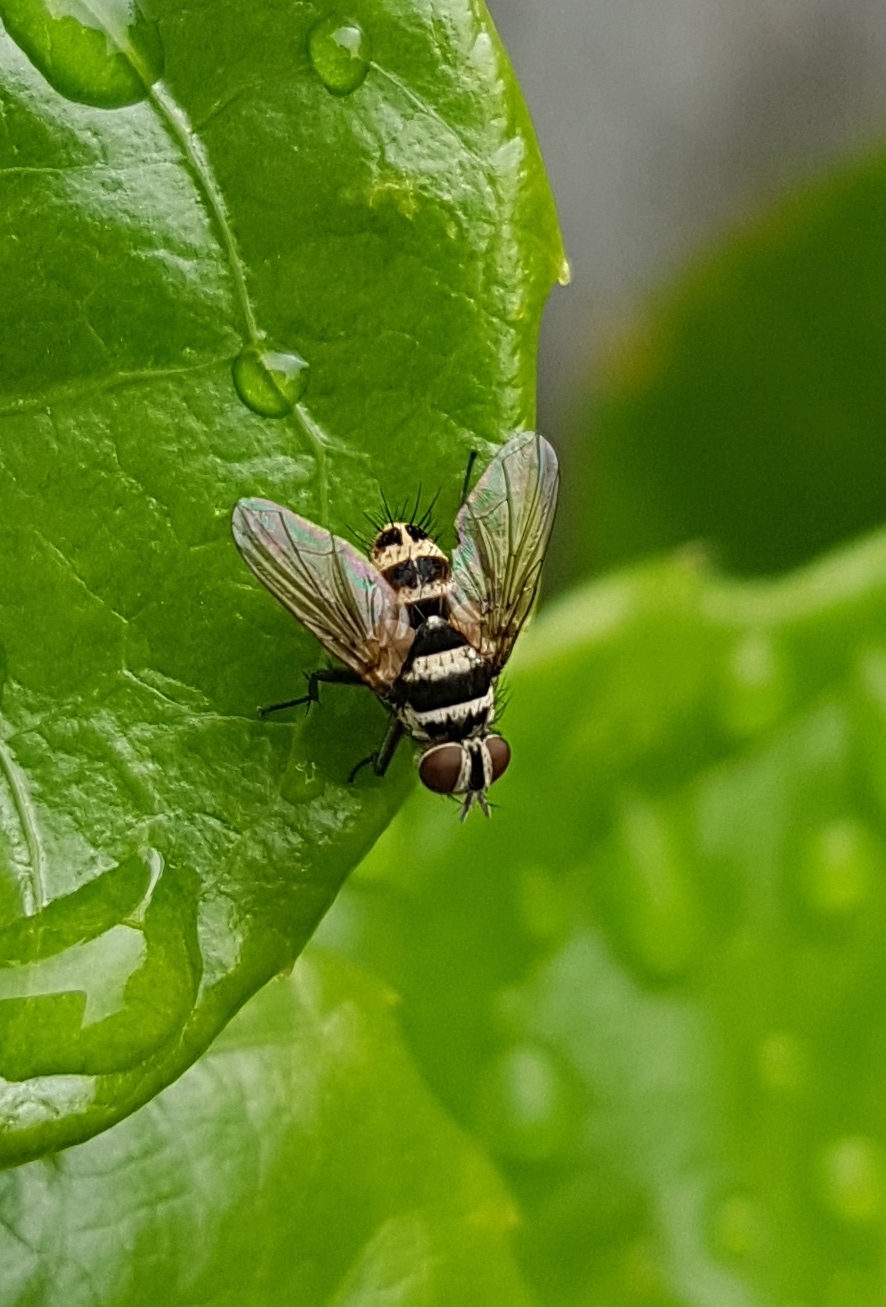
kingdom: Animalia
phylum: Arthropoda
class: Insecta
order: Diptera
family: Tachinidae
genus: Trigonospila
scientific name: Trigonospila brevifacies
